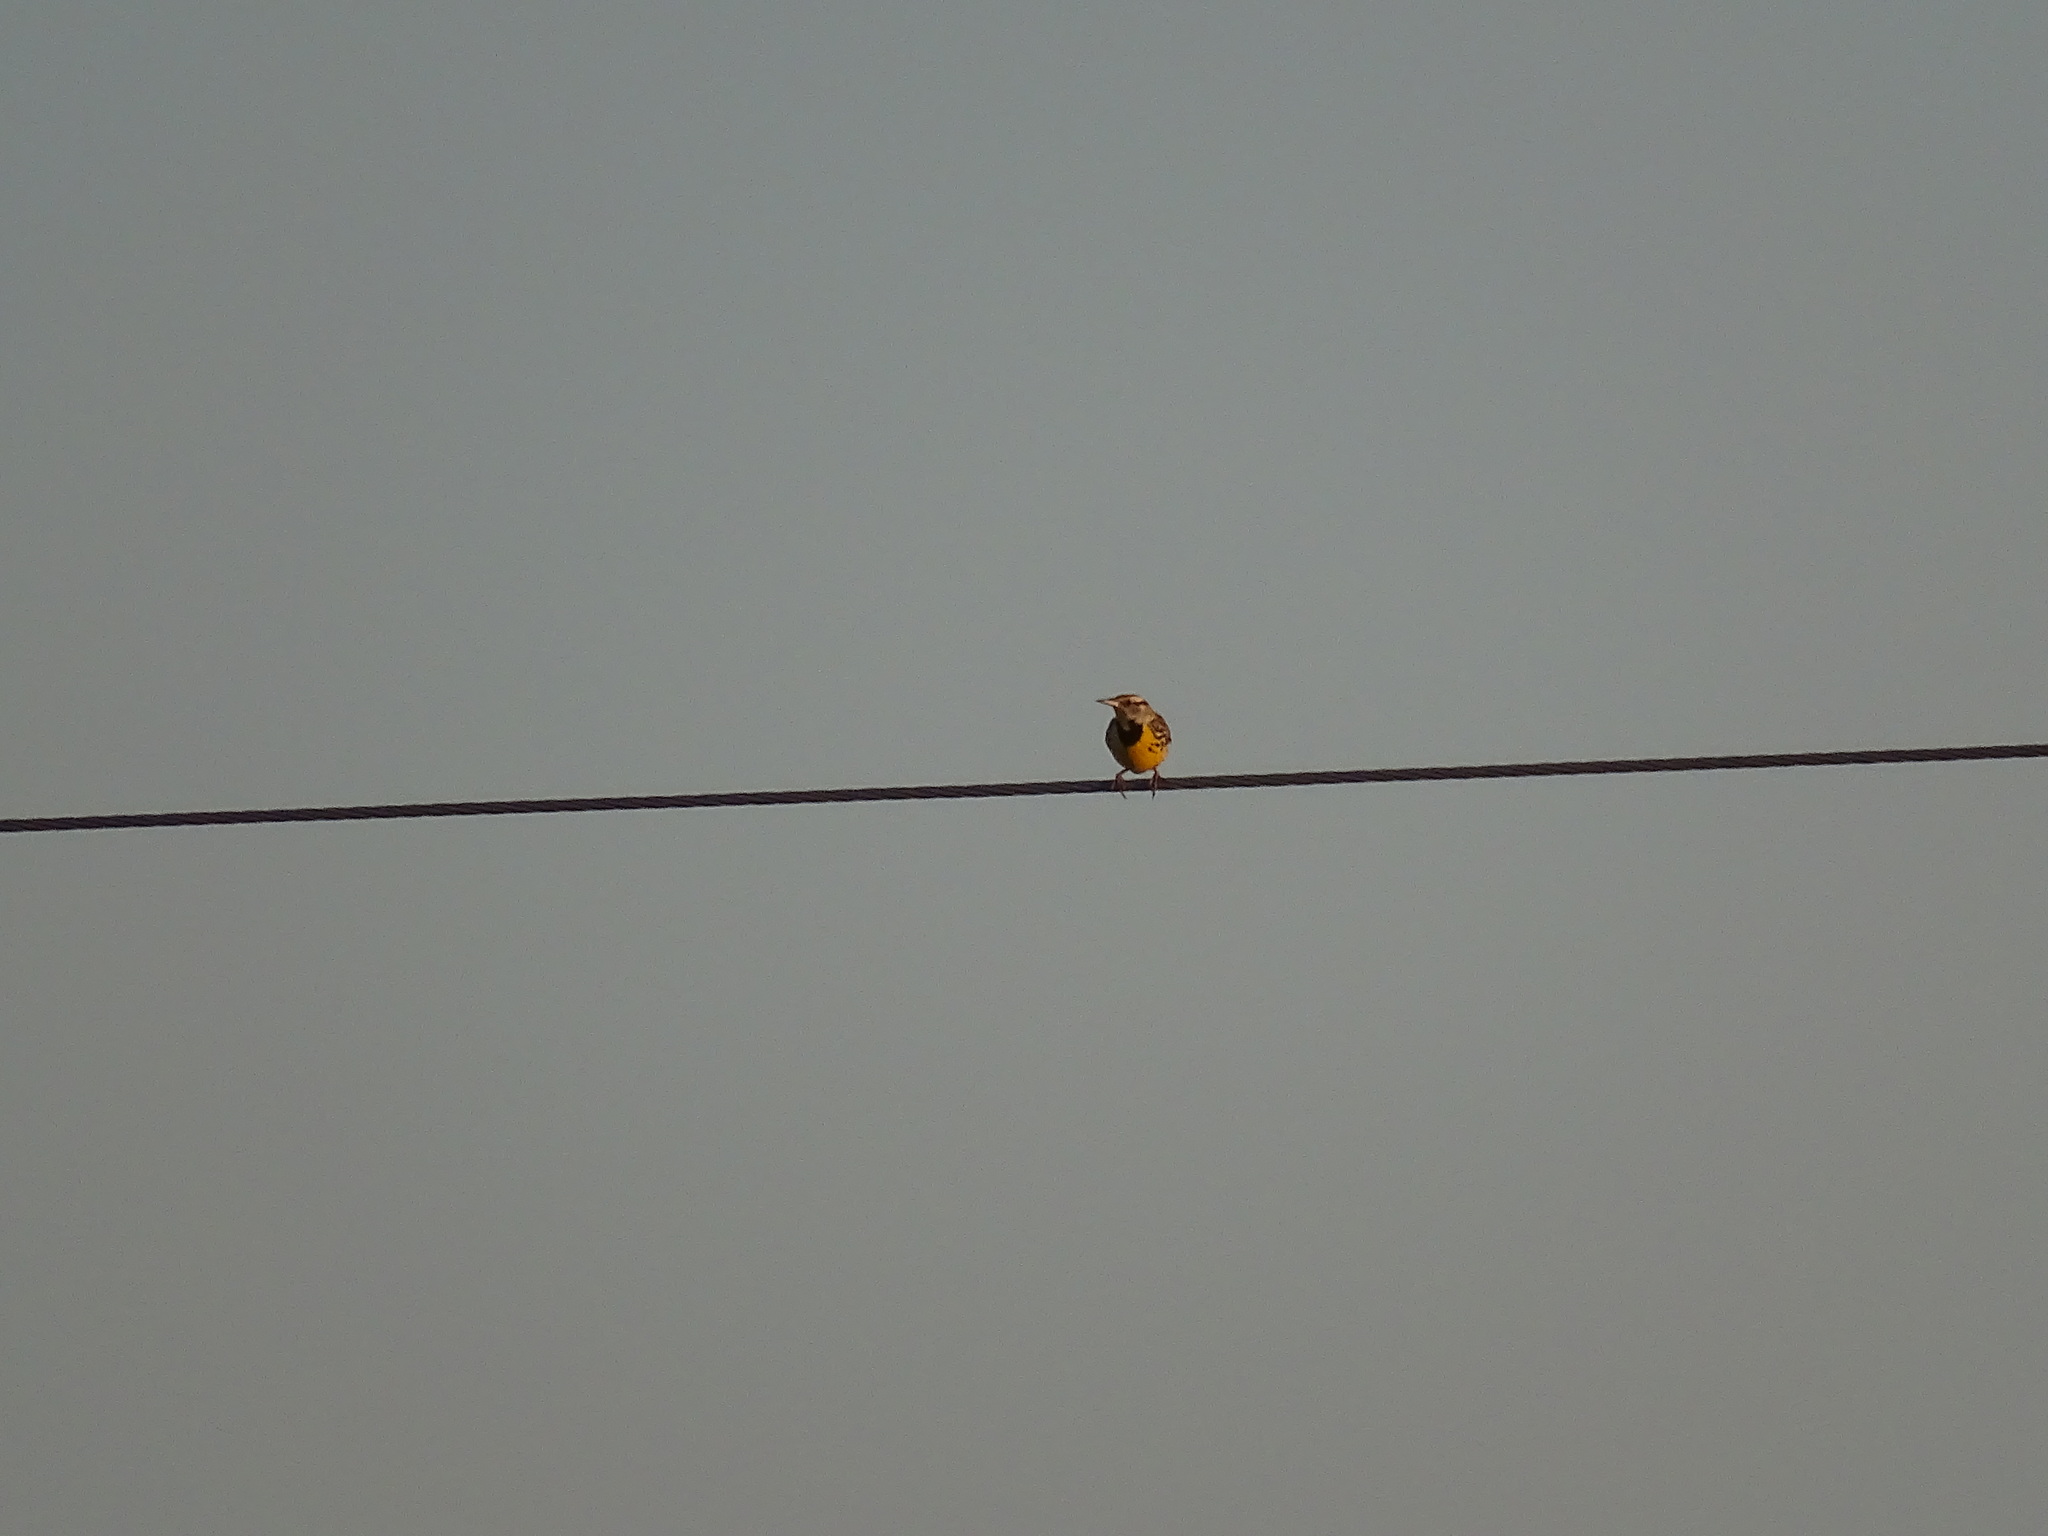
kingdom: Animalia
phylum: Chordata
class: Aves
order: Passeriformes
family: Icteridae
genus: Sturnella
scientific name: Sturnella magna
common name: Eastern meadowlark
